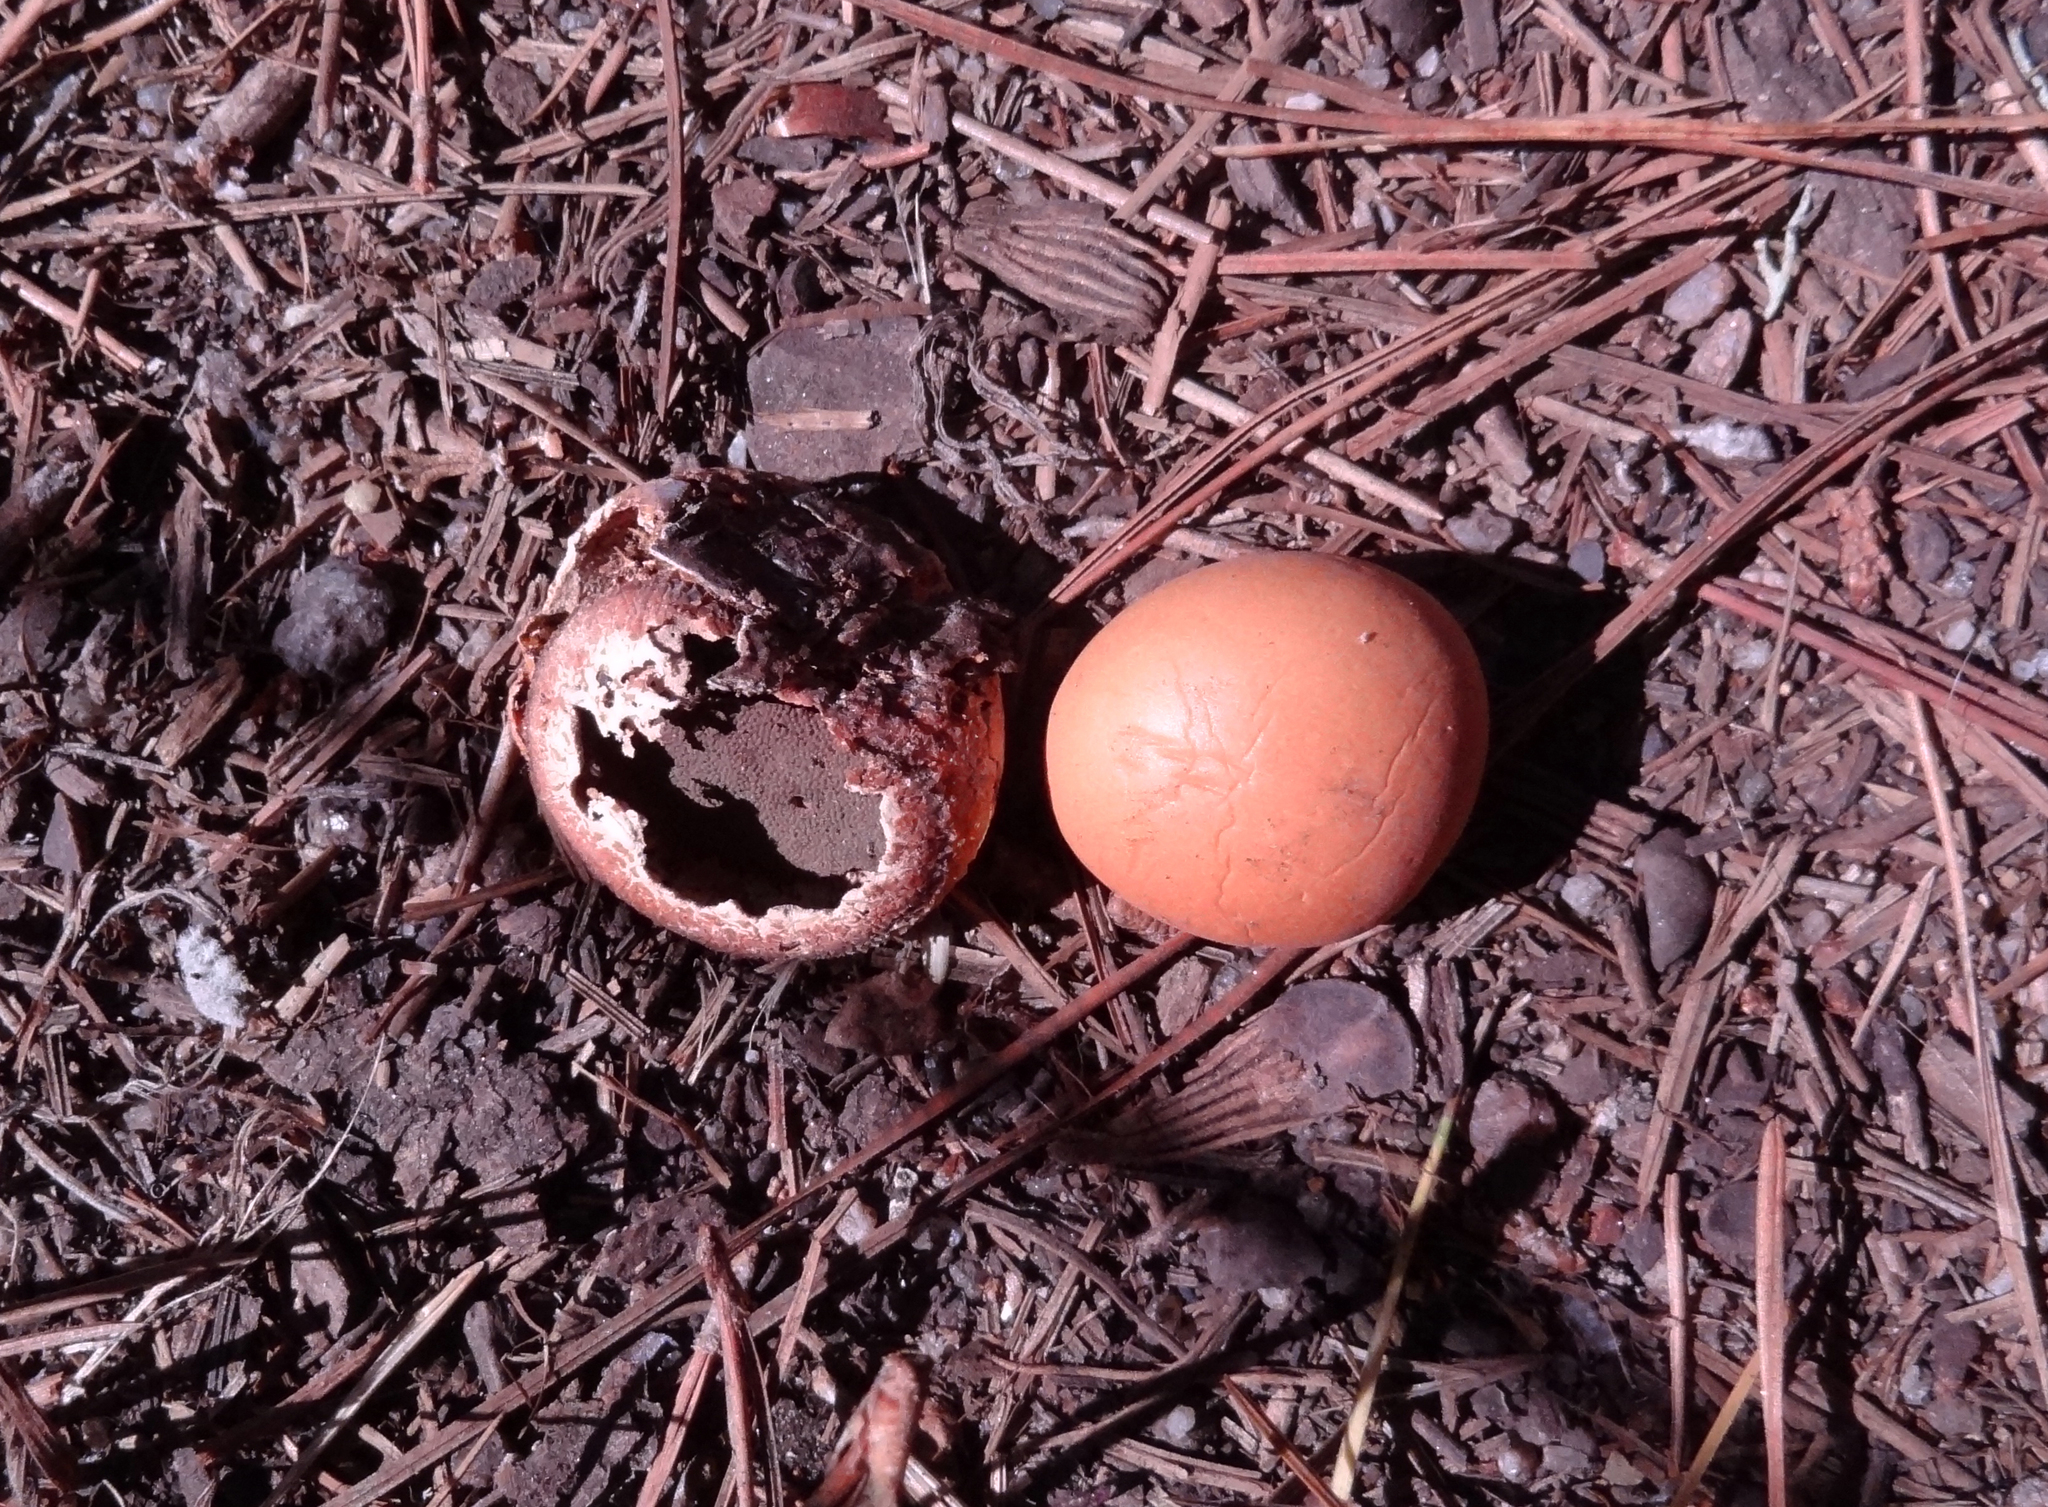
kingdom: Fungi
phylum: Basidiomycota
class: Agaricomycetes
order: Polyporales
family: Polyporaceae
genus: Cryptoporus
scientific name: Cryptoporus volvatus
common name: Veiled polypore
